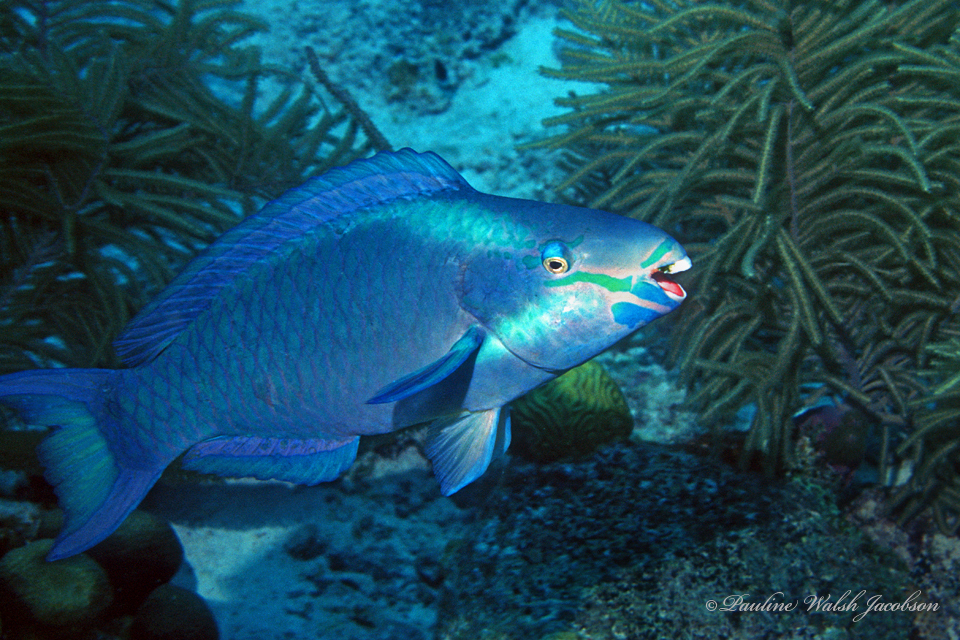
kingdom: Animalia
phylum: Chordata
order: Perciformes
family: Scaridae
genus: Scarus
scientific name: Scarus vetula
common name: Queen parrotfish
